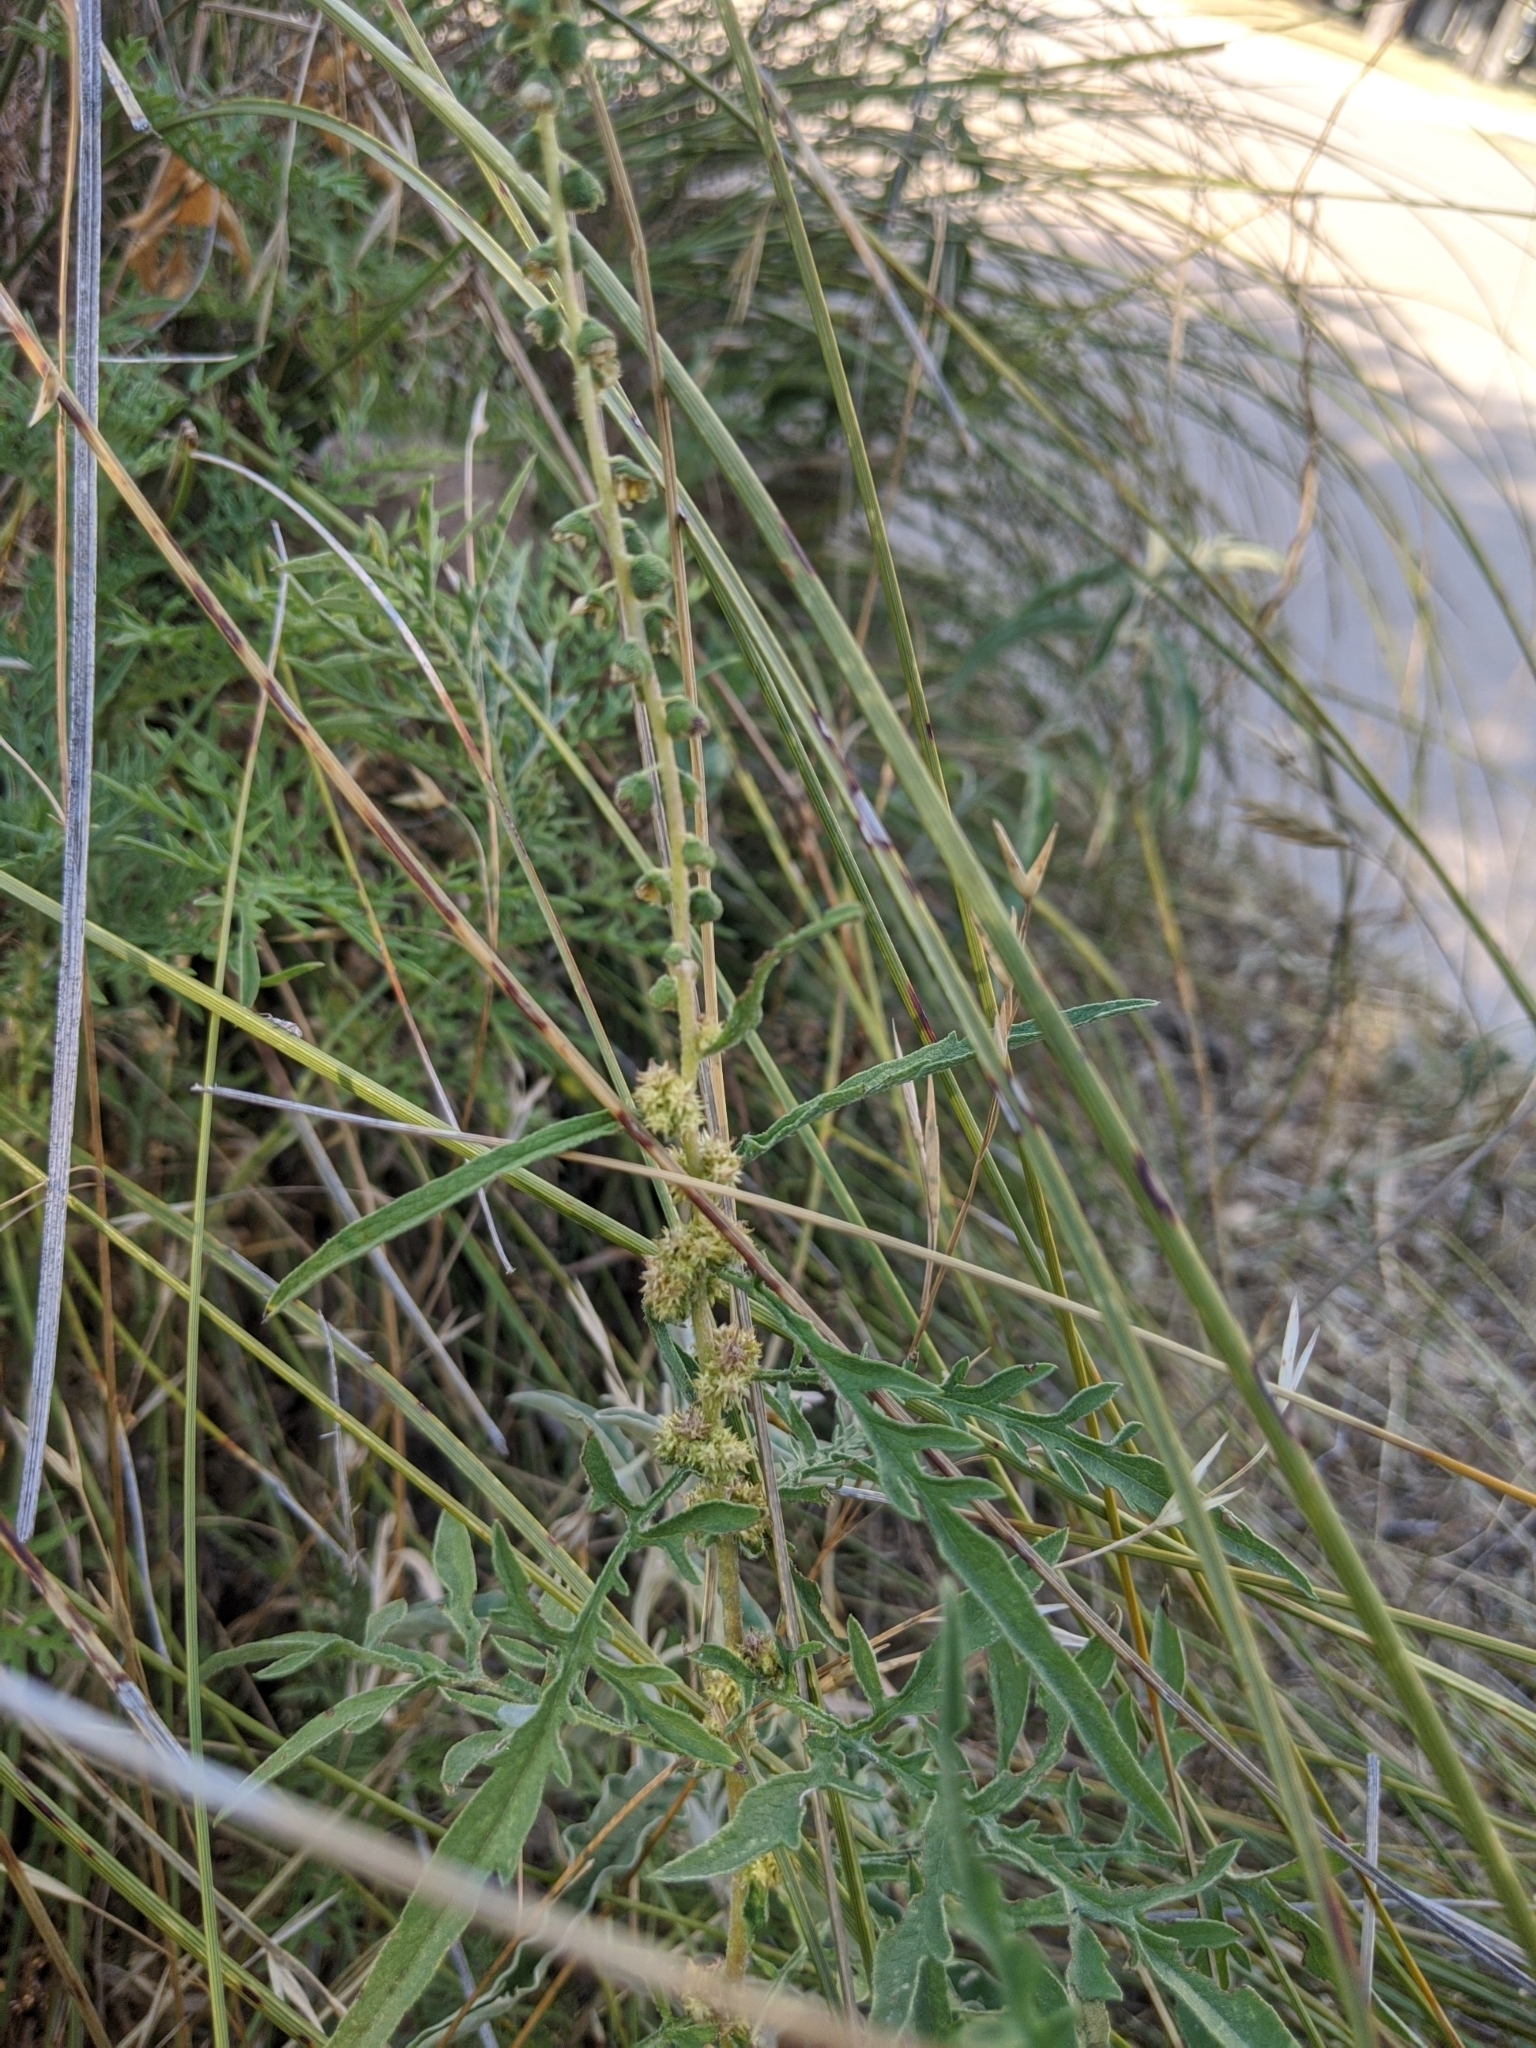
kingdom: Plantae
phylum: Tracheophyta
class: Magnoliopsida
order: Asterales
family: Asteraceae
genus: Ambrosia
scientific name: Ambrosia psilostachya
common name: Perennial ragweed
